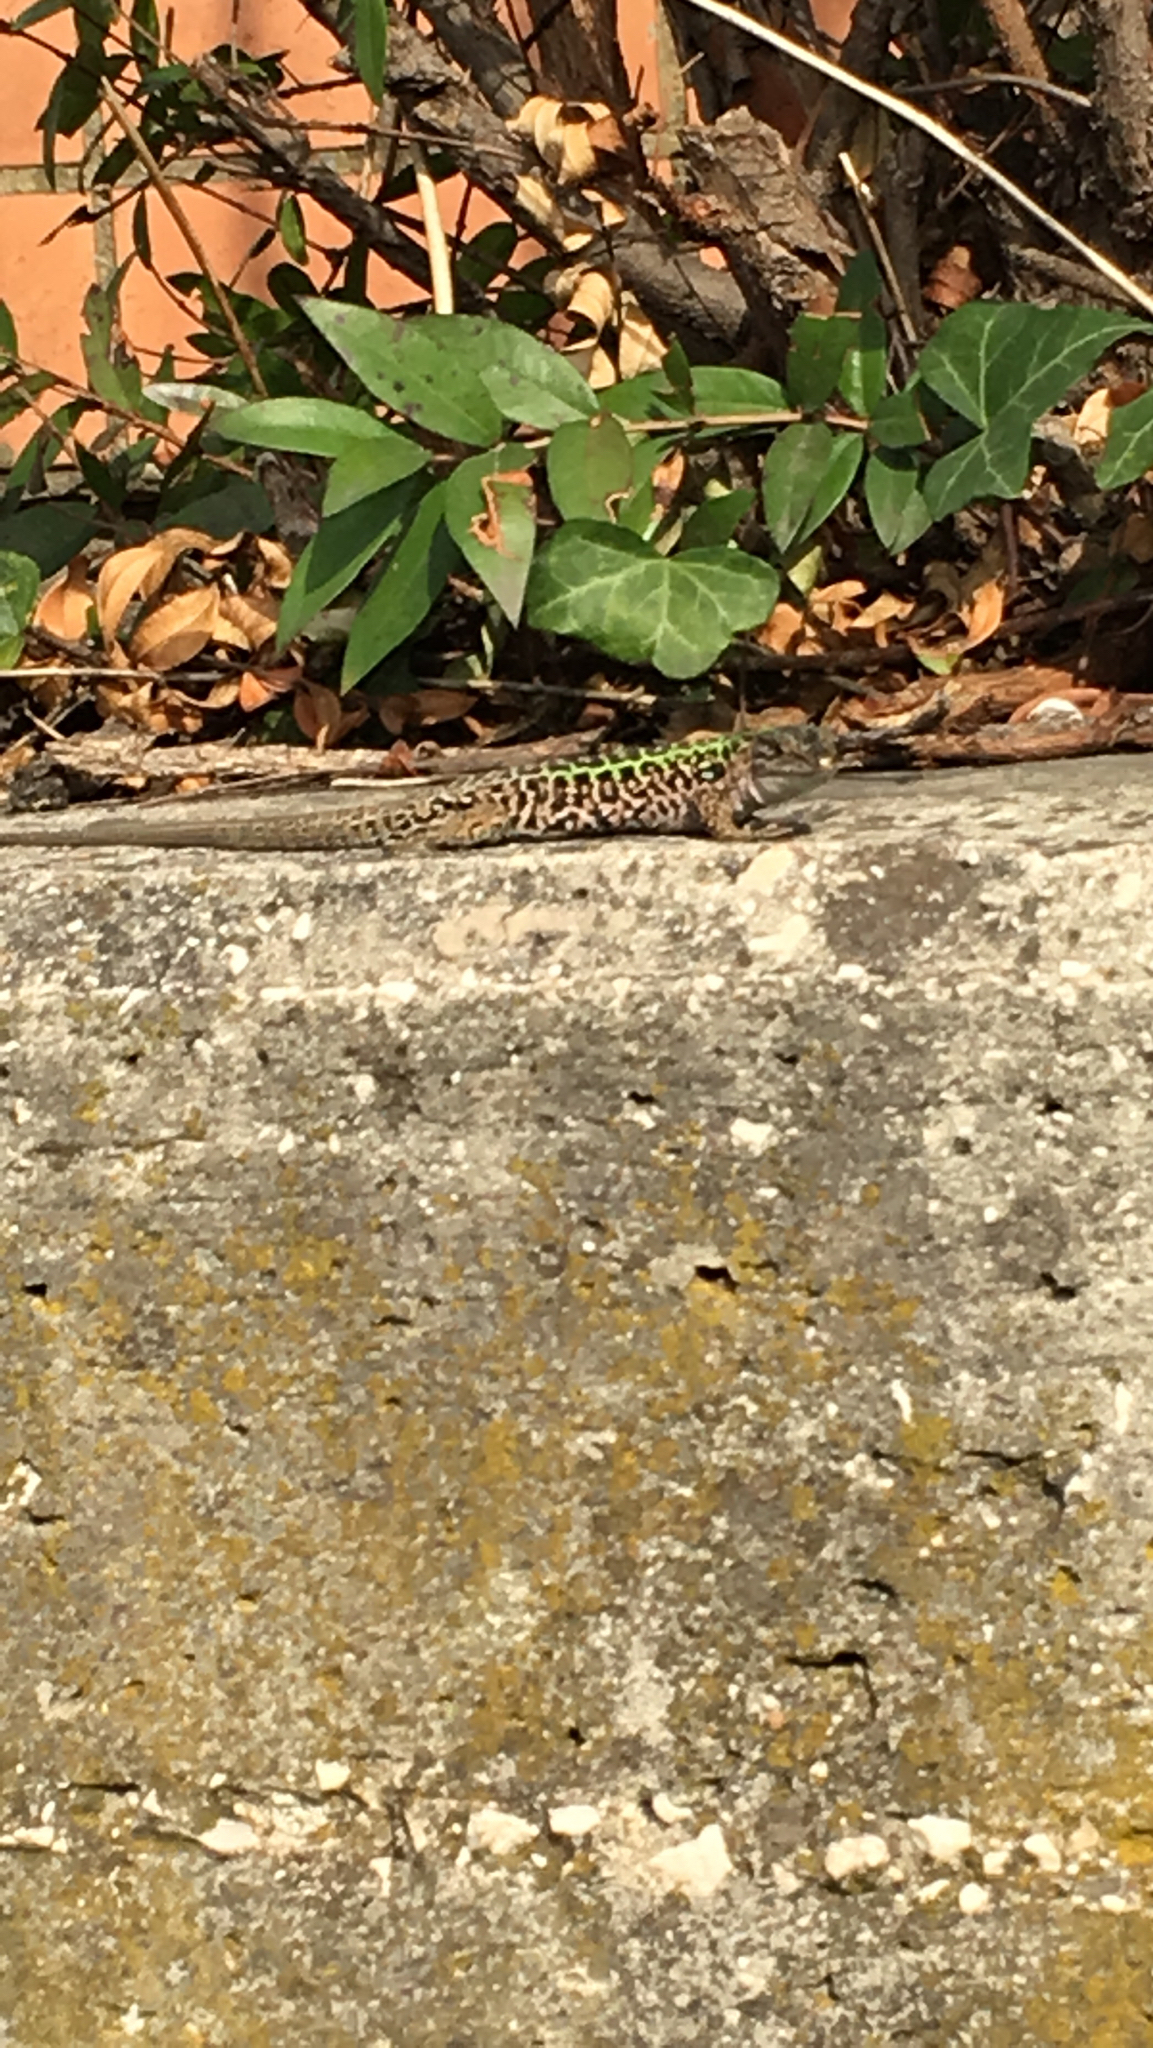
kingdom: Animalia
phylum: Chordata
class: Squamata
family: Lacertidae
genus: Podarcis
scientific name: Podarcis siculus
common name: Italian wall lizard
